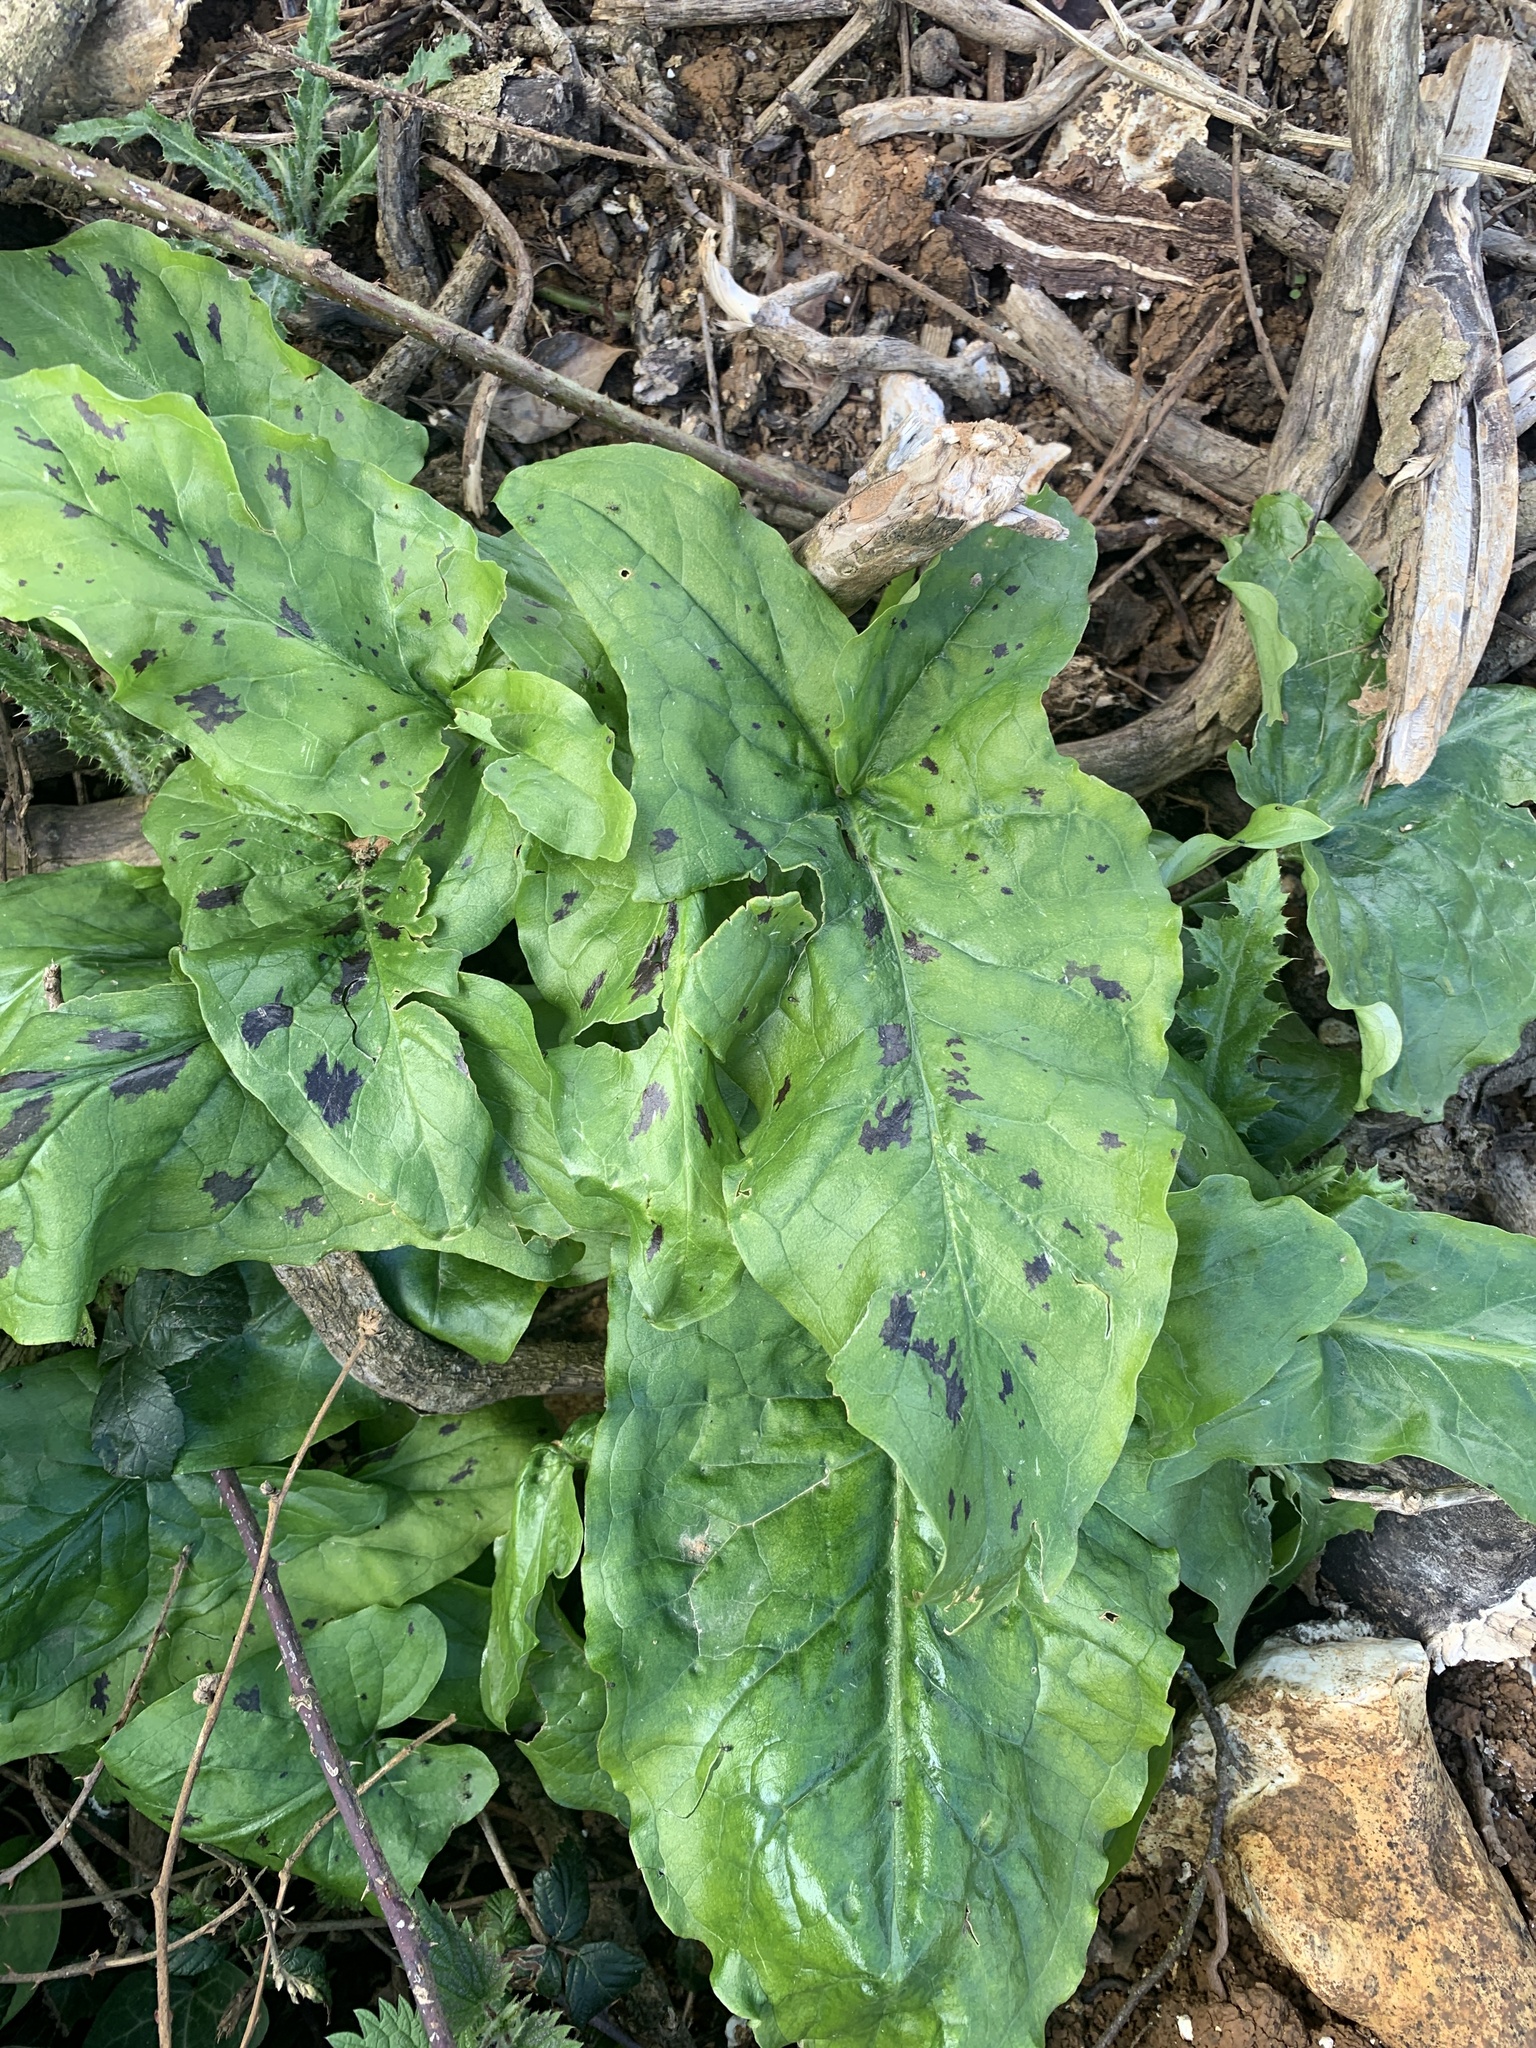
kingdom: Plantae
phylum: Tracheophyta
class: Liliopsida
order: Alismatales
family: Araceae
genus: Arum
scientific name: Arum maculatum
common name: Lords-and-ladies
